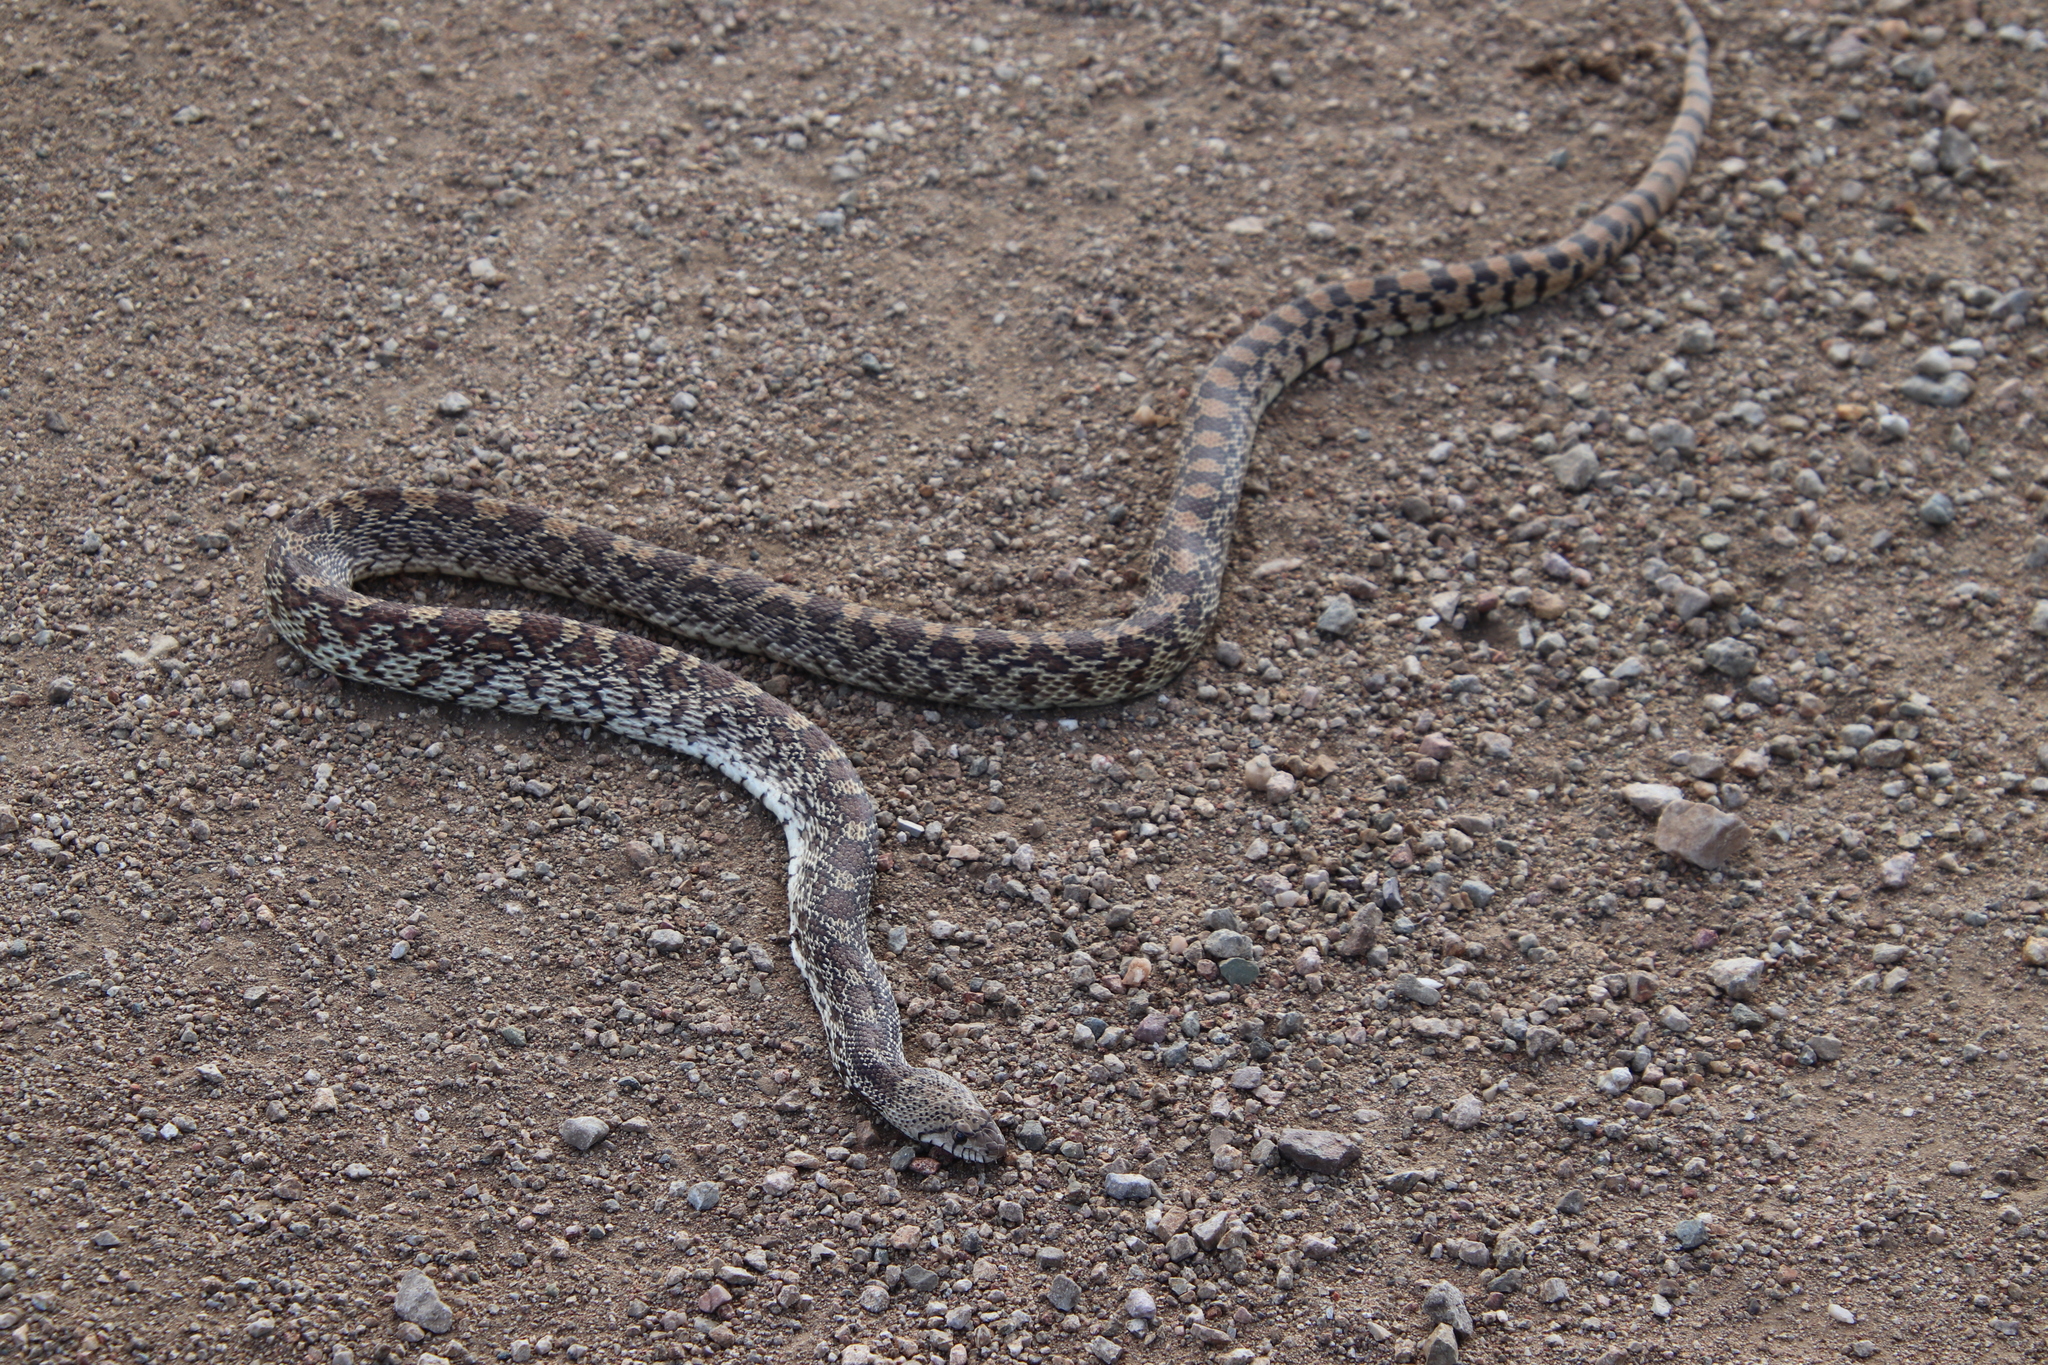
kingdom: Animalia
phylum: Chordata
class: Squamata
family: Colubridae
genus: Pituophis
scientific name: Pituophis catenifer
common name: Gopher snake
